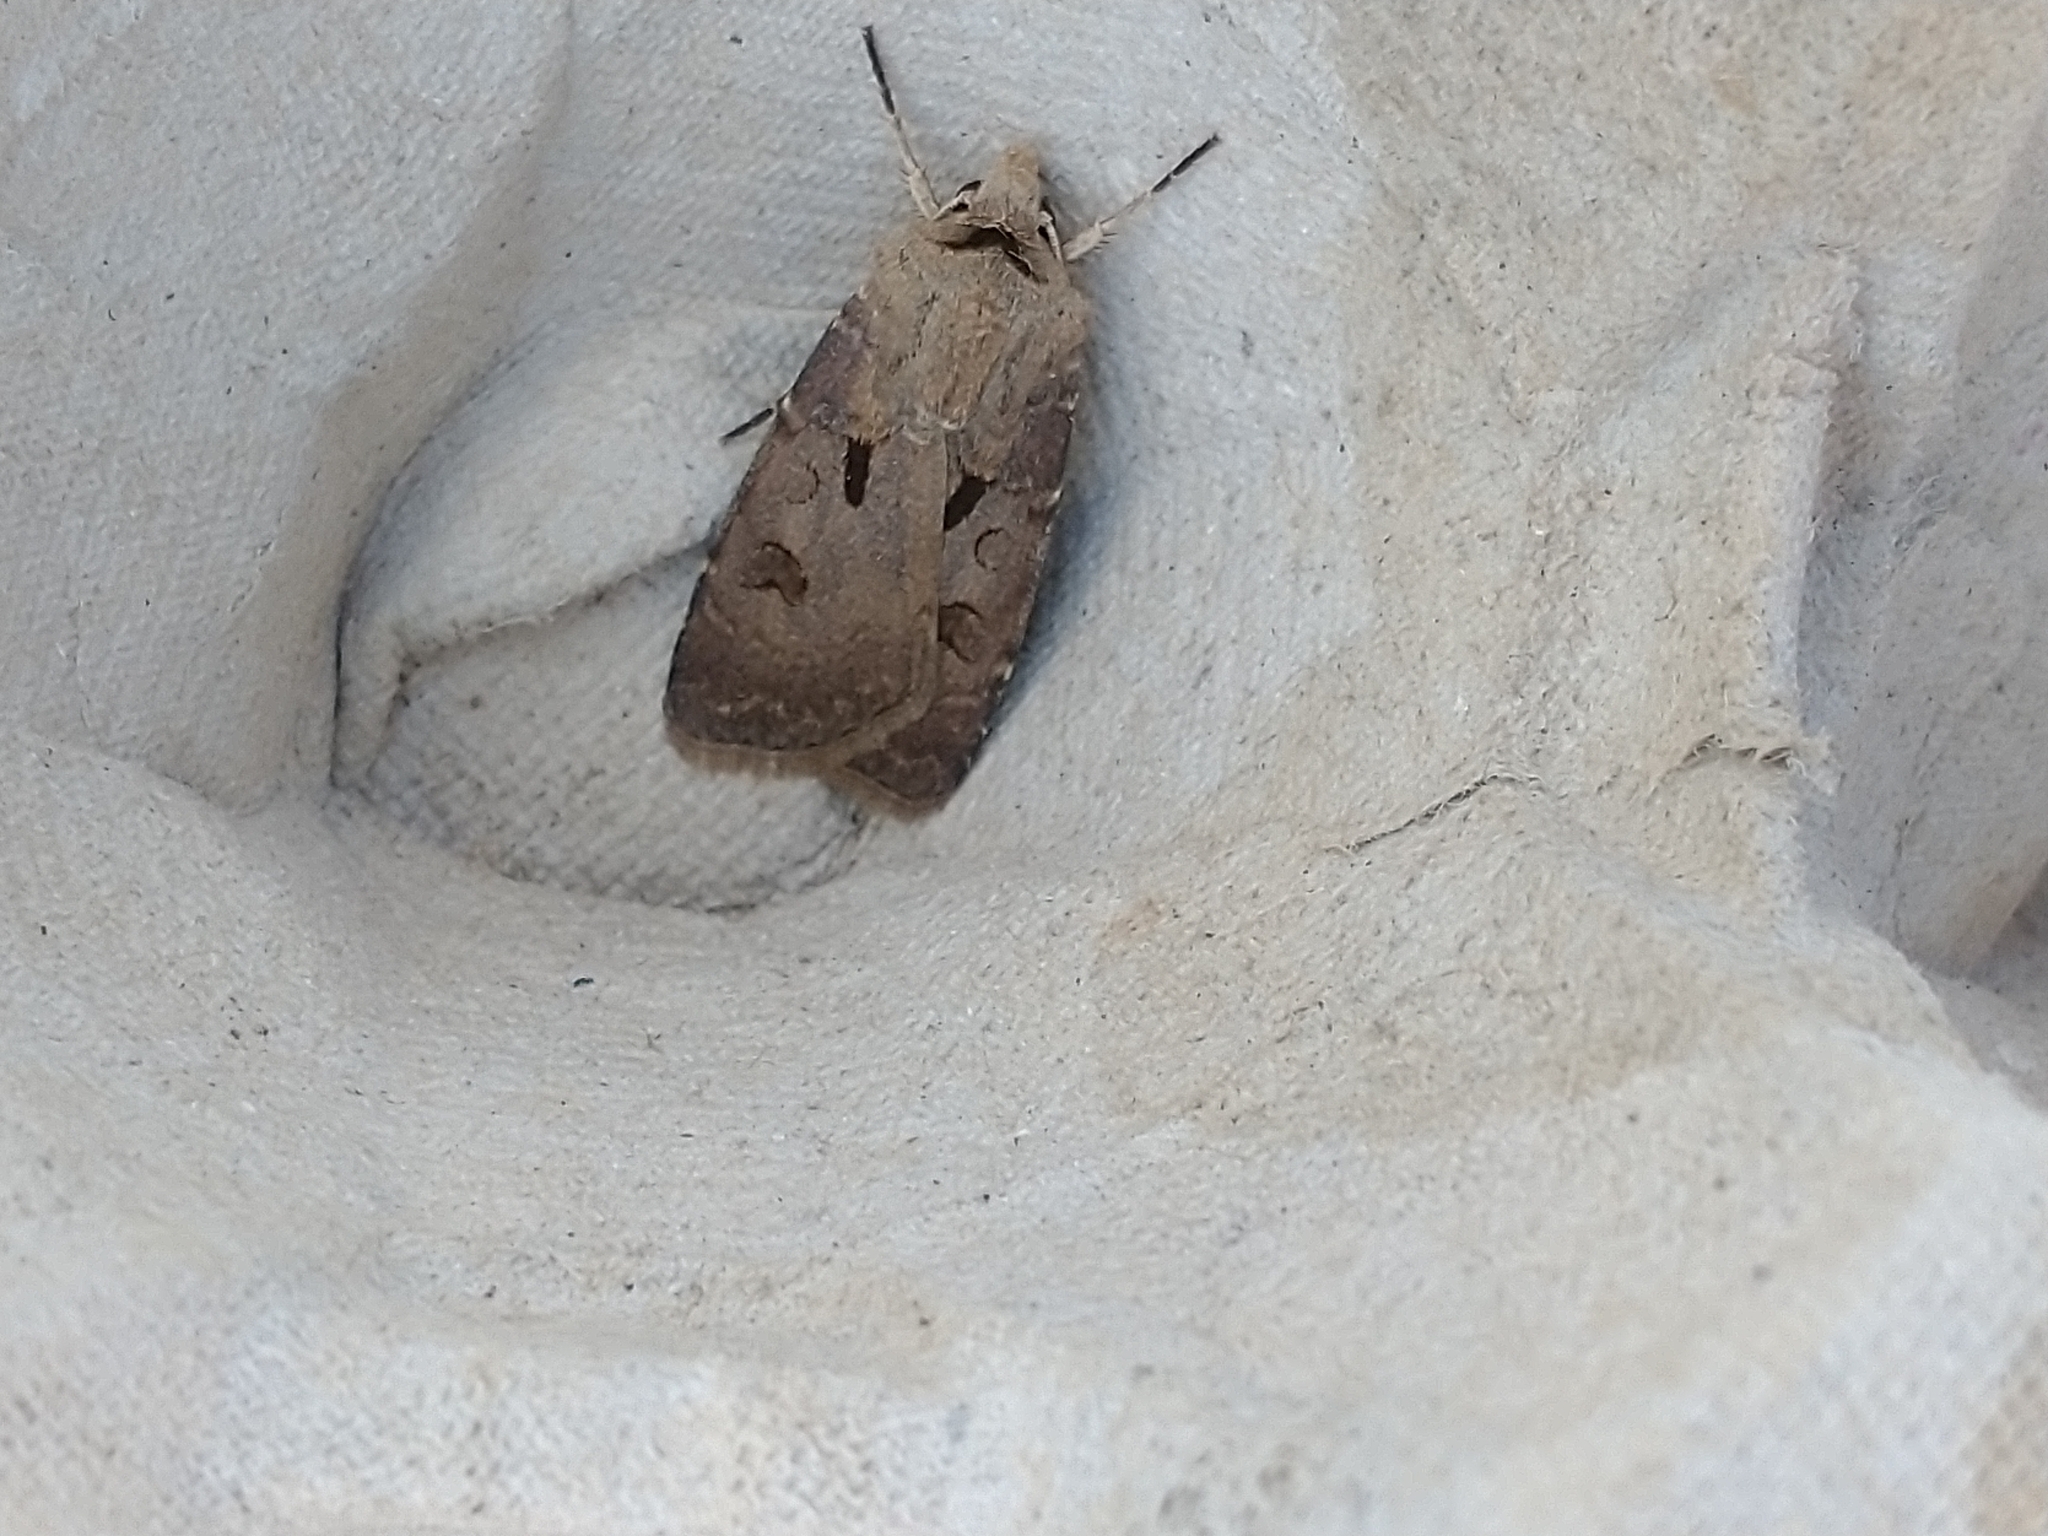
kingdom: Animalia
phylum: Arthropoda
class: Insecta
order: Lepidoptera
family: Noctuidae
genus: Agrotis
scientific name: Agrotis exclamationis
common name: Heart and dart
